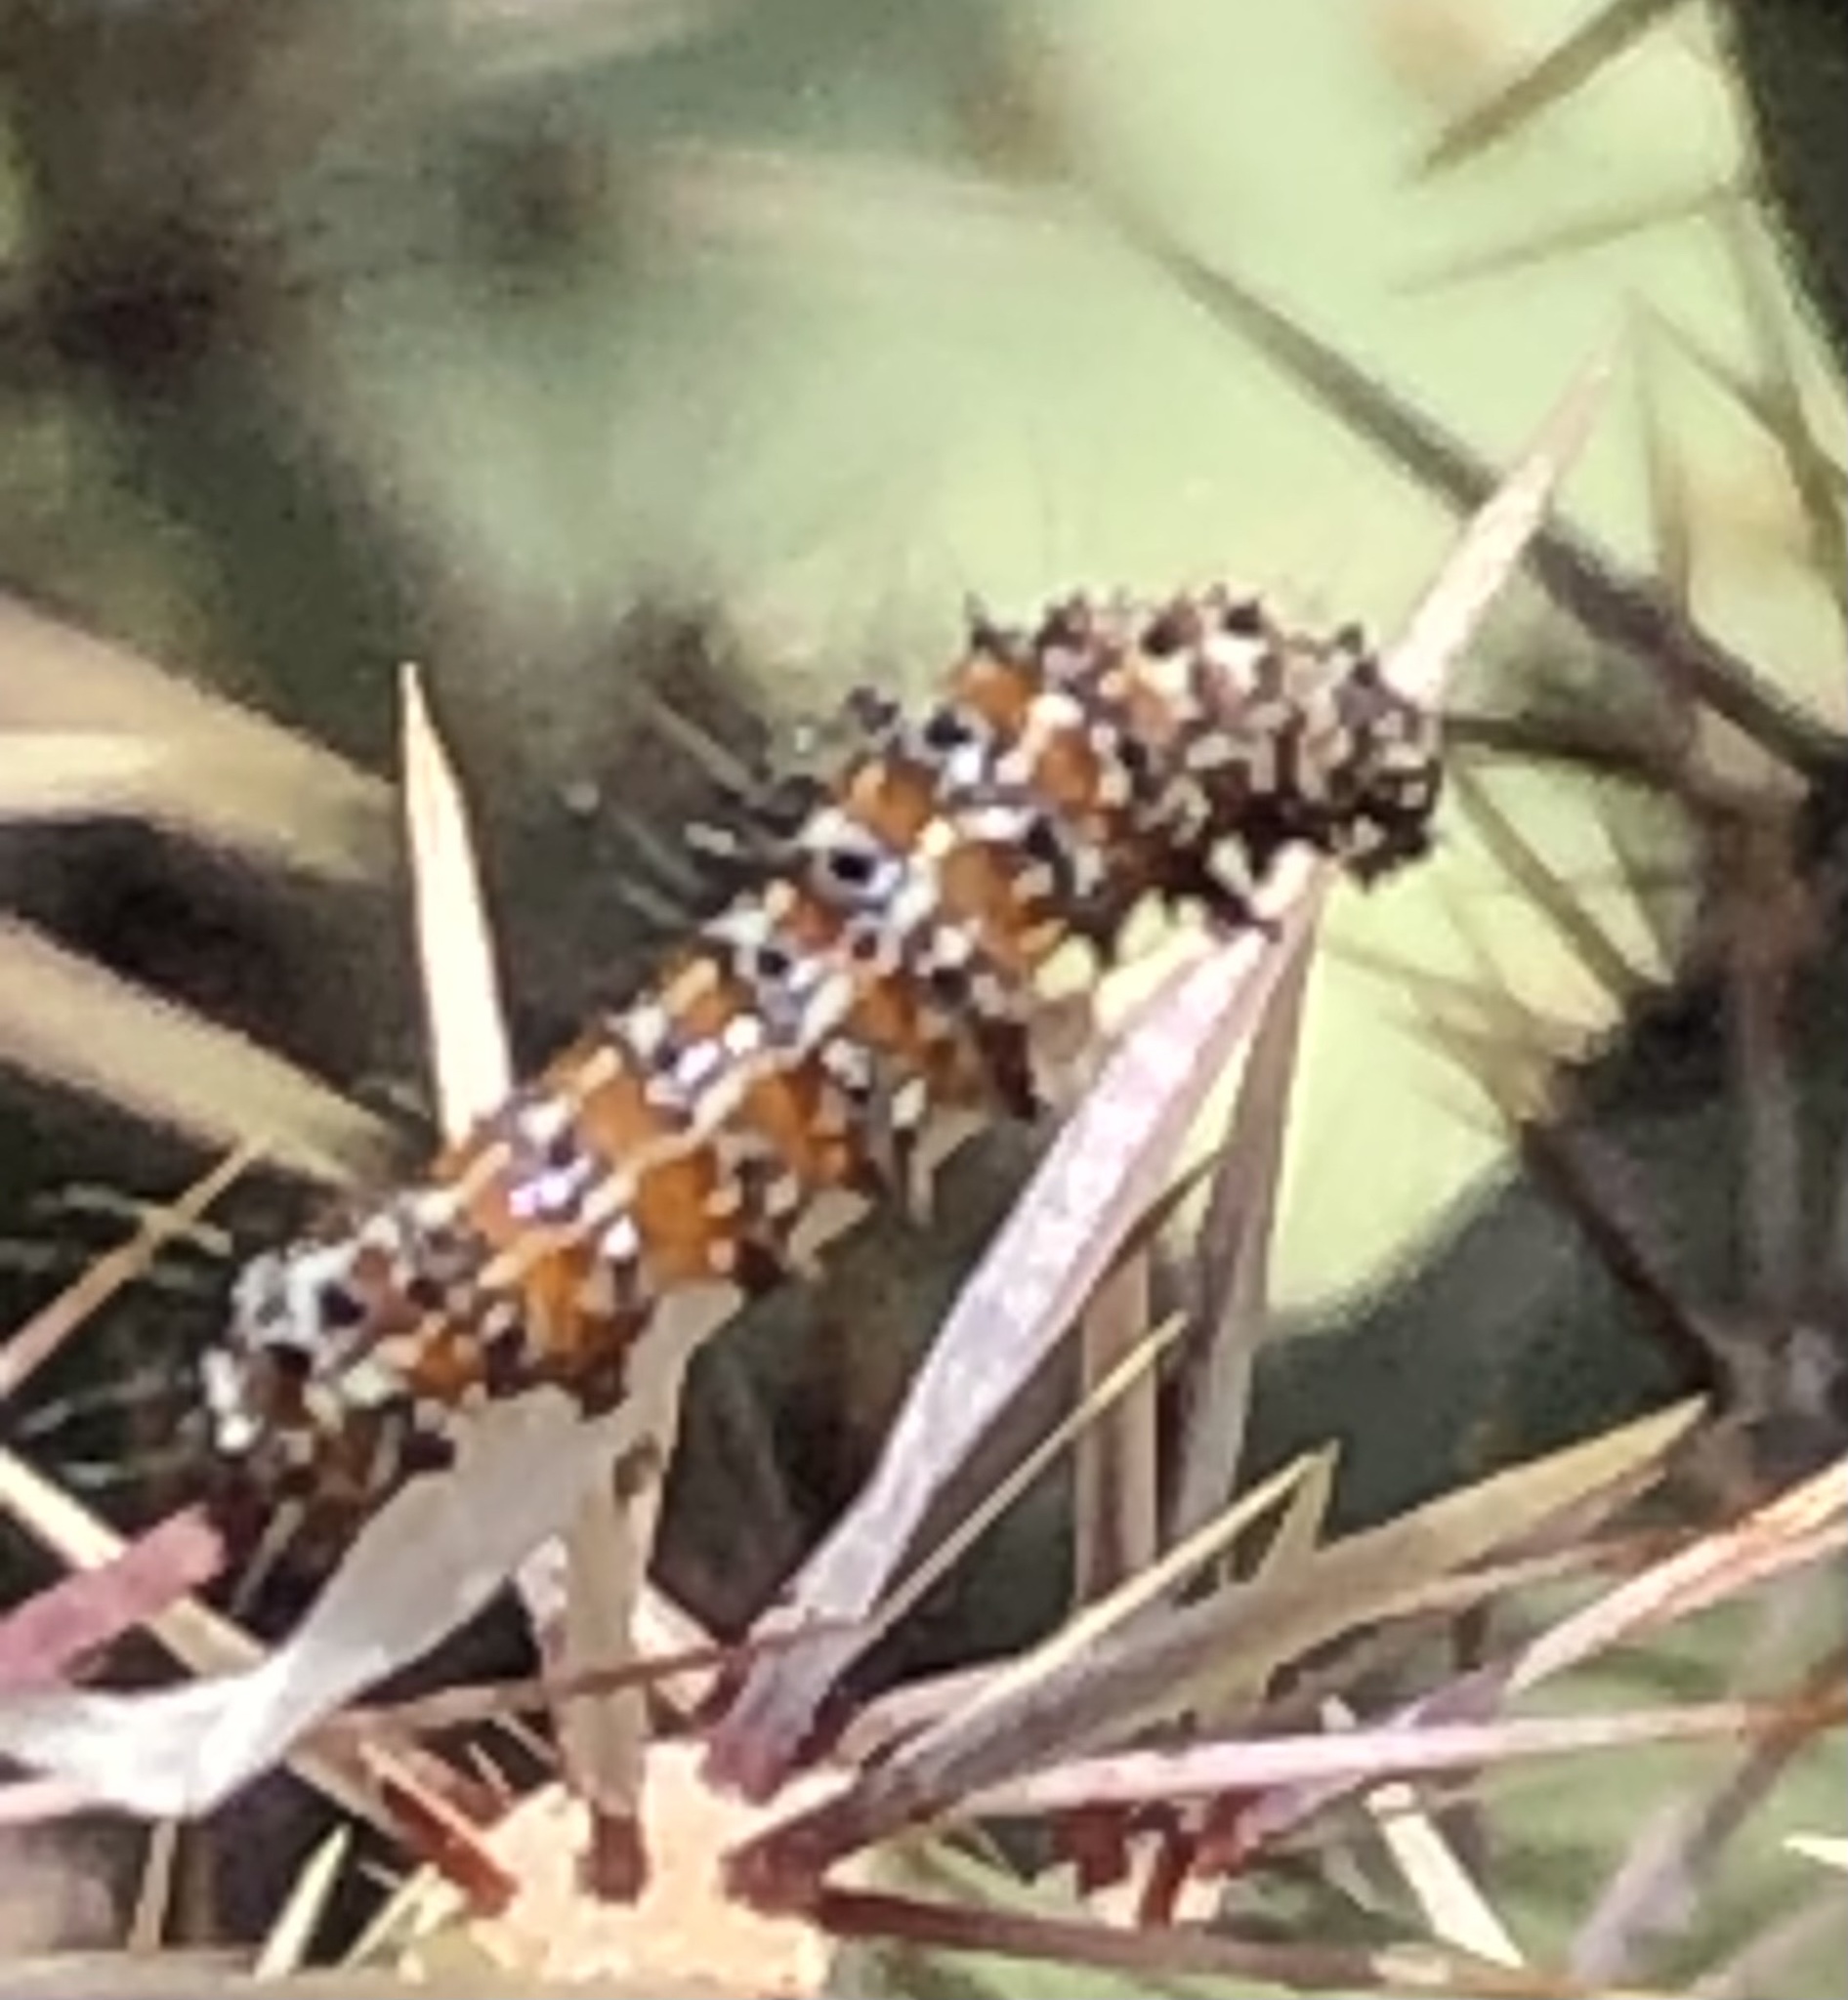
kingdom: Animalia
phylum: Arthropoda
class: Insecta
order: Lepidoptera
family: Noctuidae
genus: Euscirrhopterus
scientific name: Euscirrhopterus cosyra
